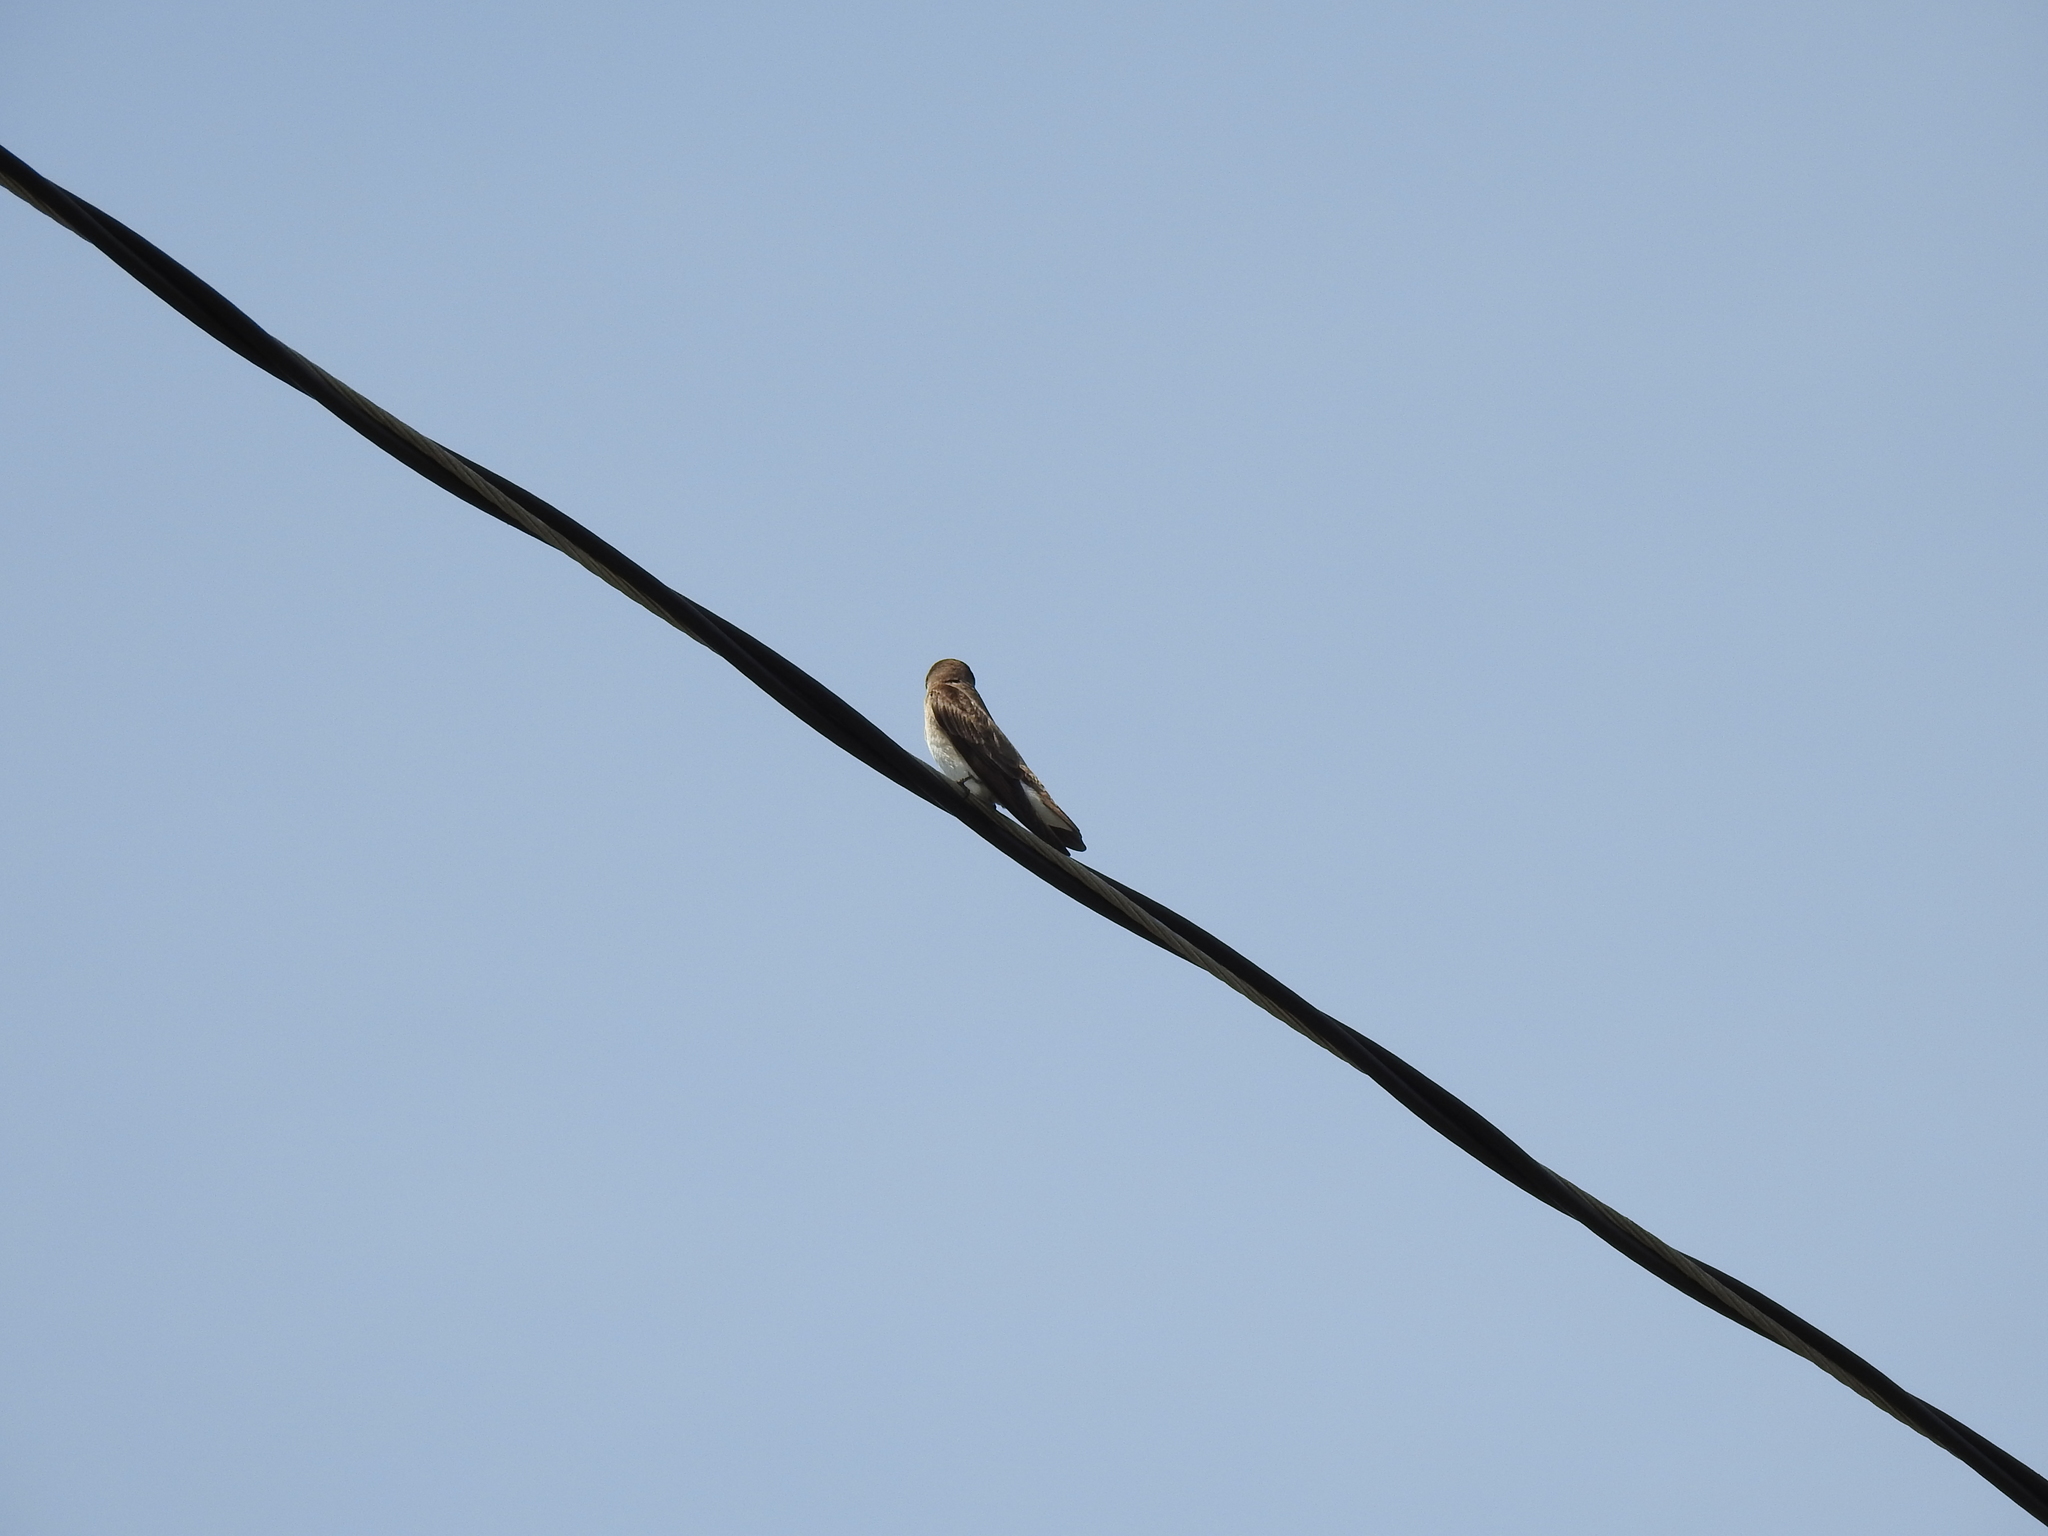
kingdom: Animalia
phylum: Chordata
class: Aves
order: Passeriformes
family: Hirundinidae
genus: Stelgidopteryx
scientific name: Stelgidopteryx serripennis
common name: Northern rough-winged swallow
